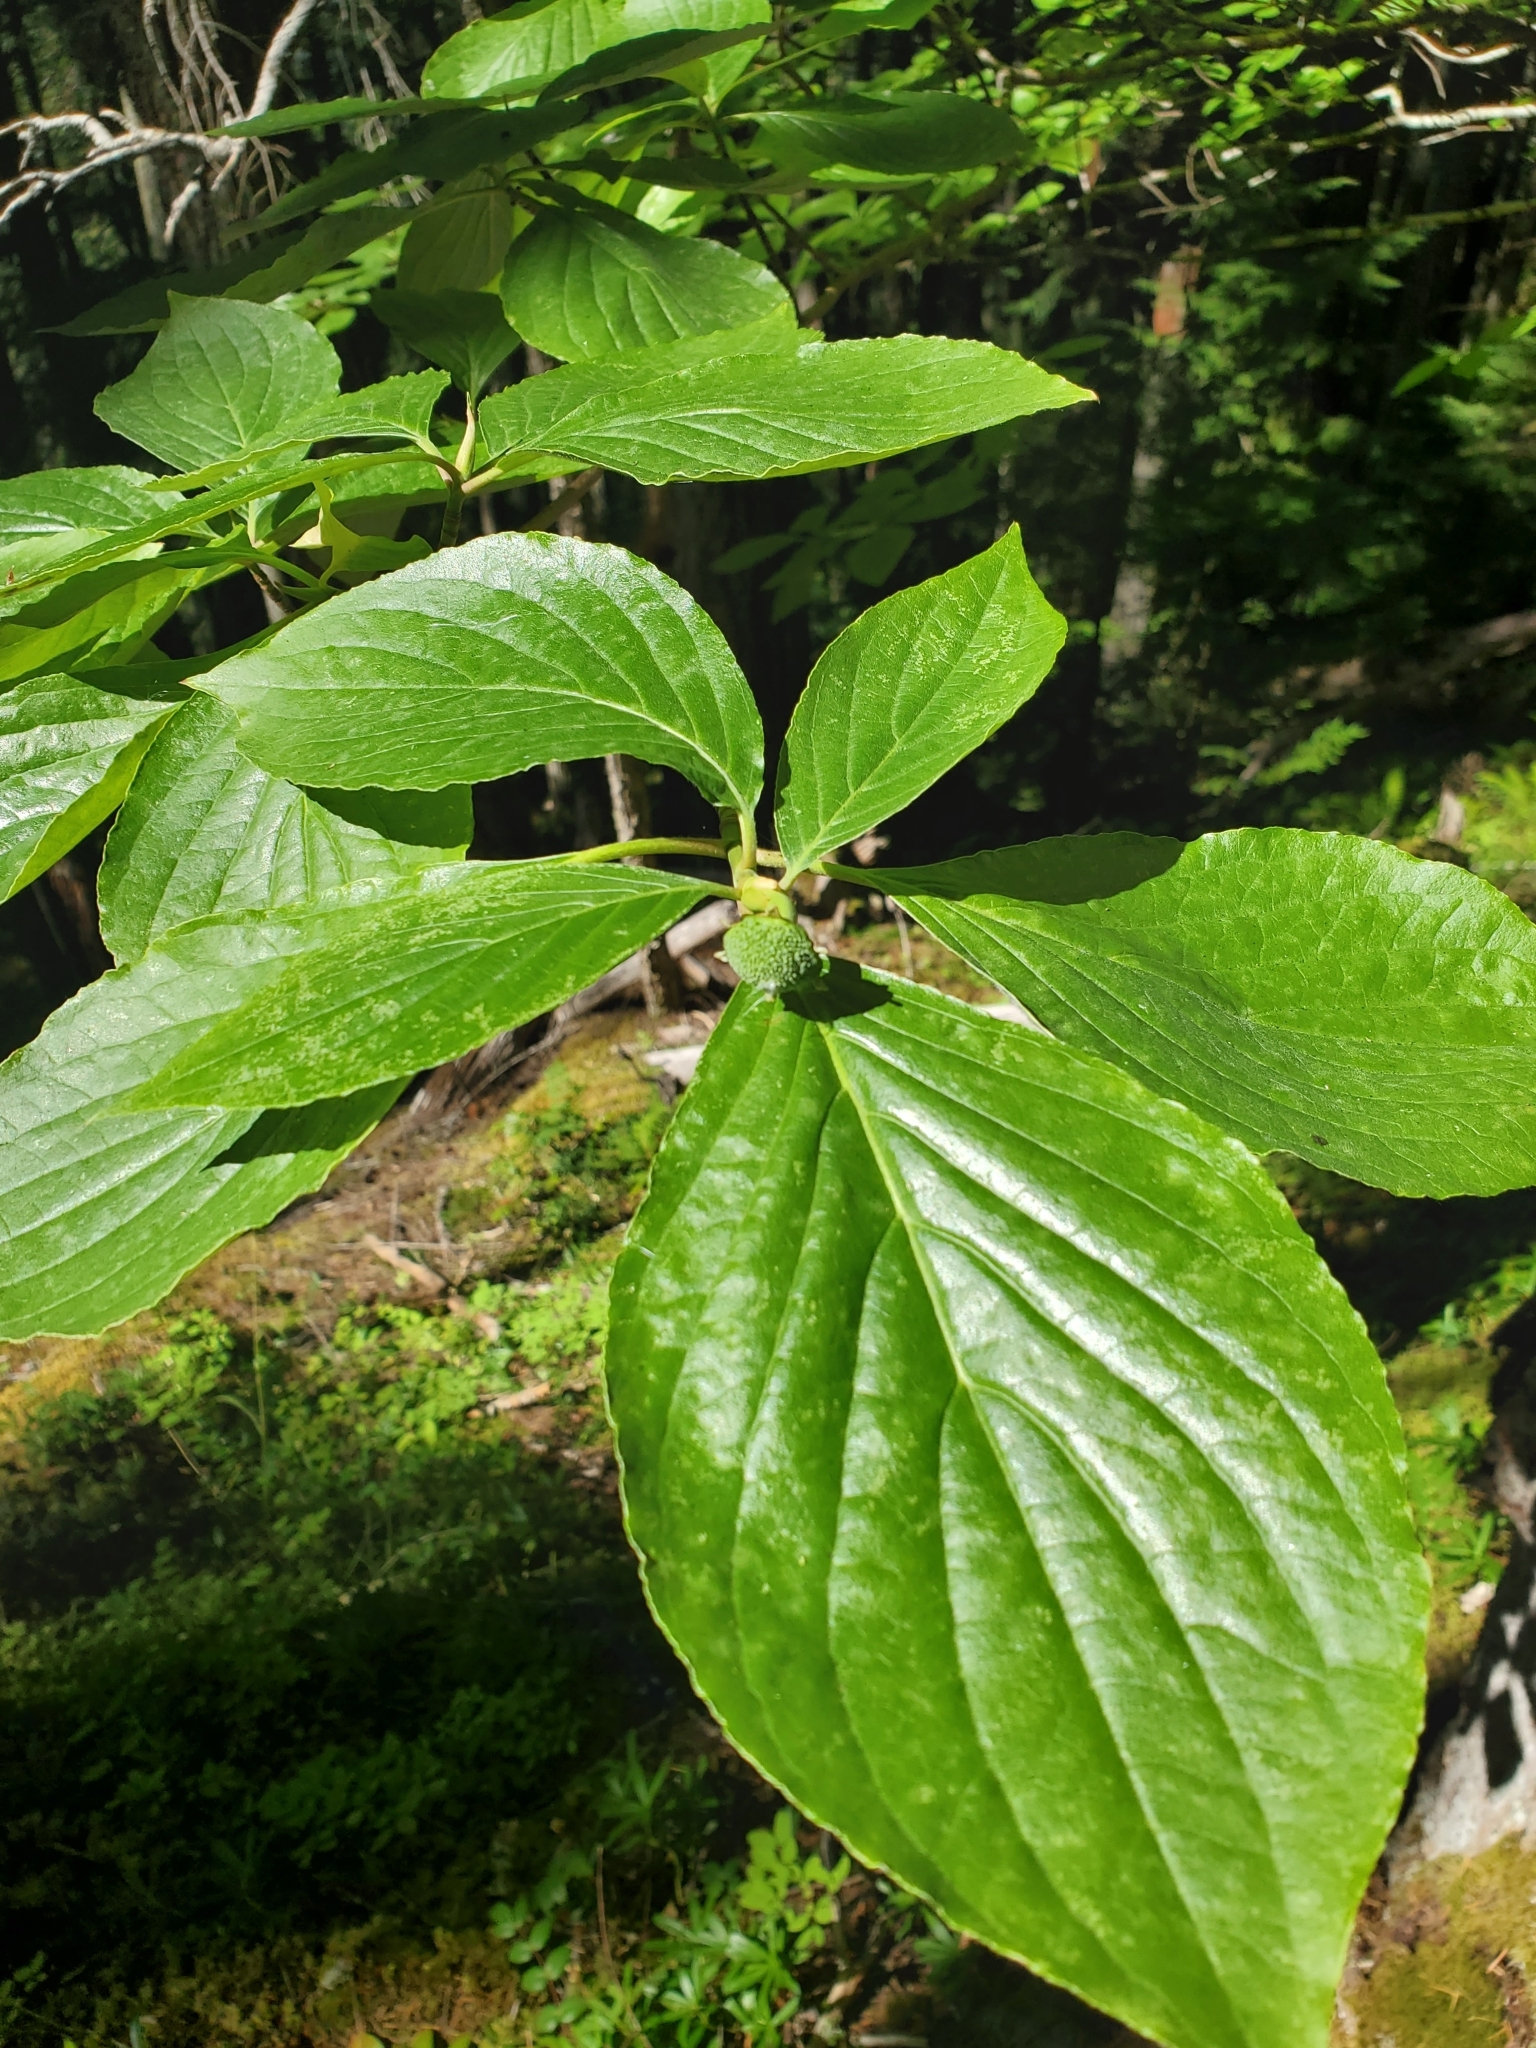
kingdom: Plantae
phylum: Tracheophyta
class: Magnoliopsida
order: Cornales
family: Cornaceae
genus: Cornus
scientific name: Cornus nuttallii
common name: Pacific dogwood
